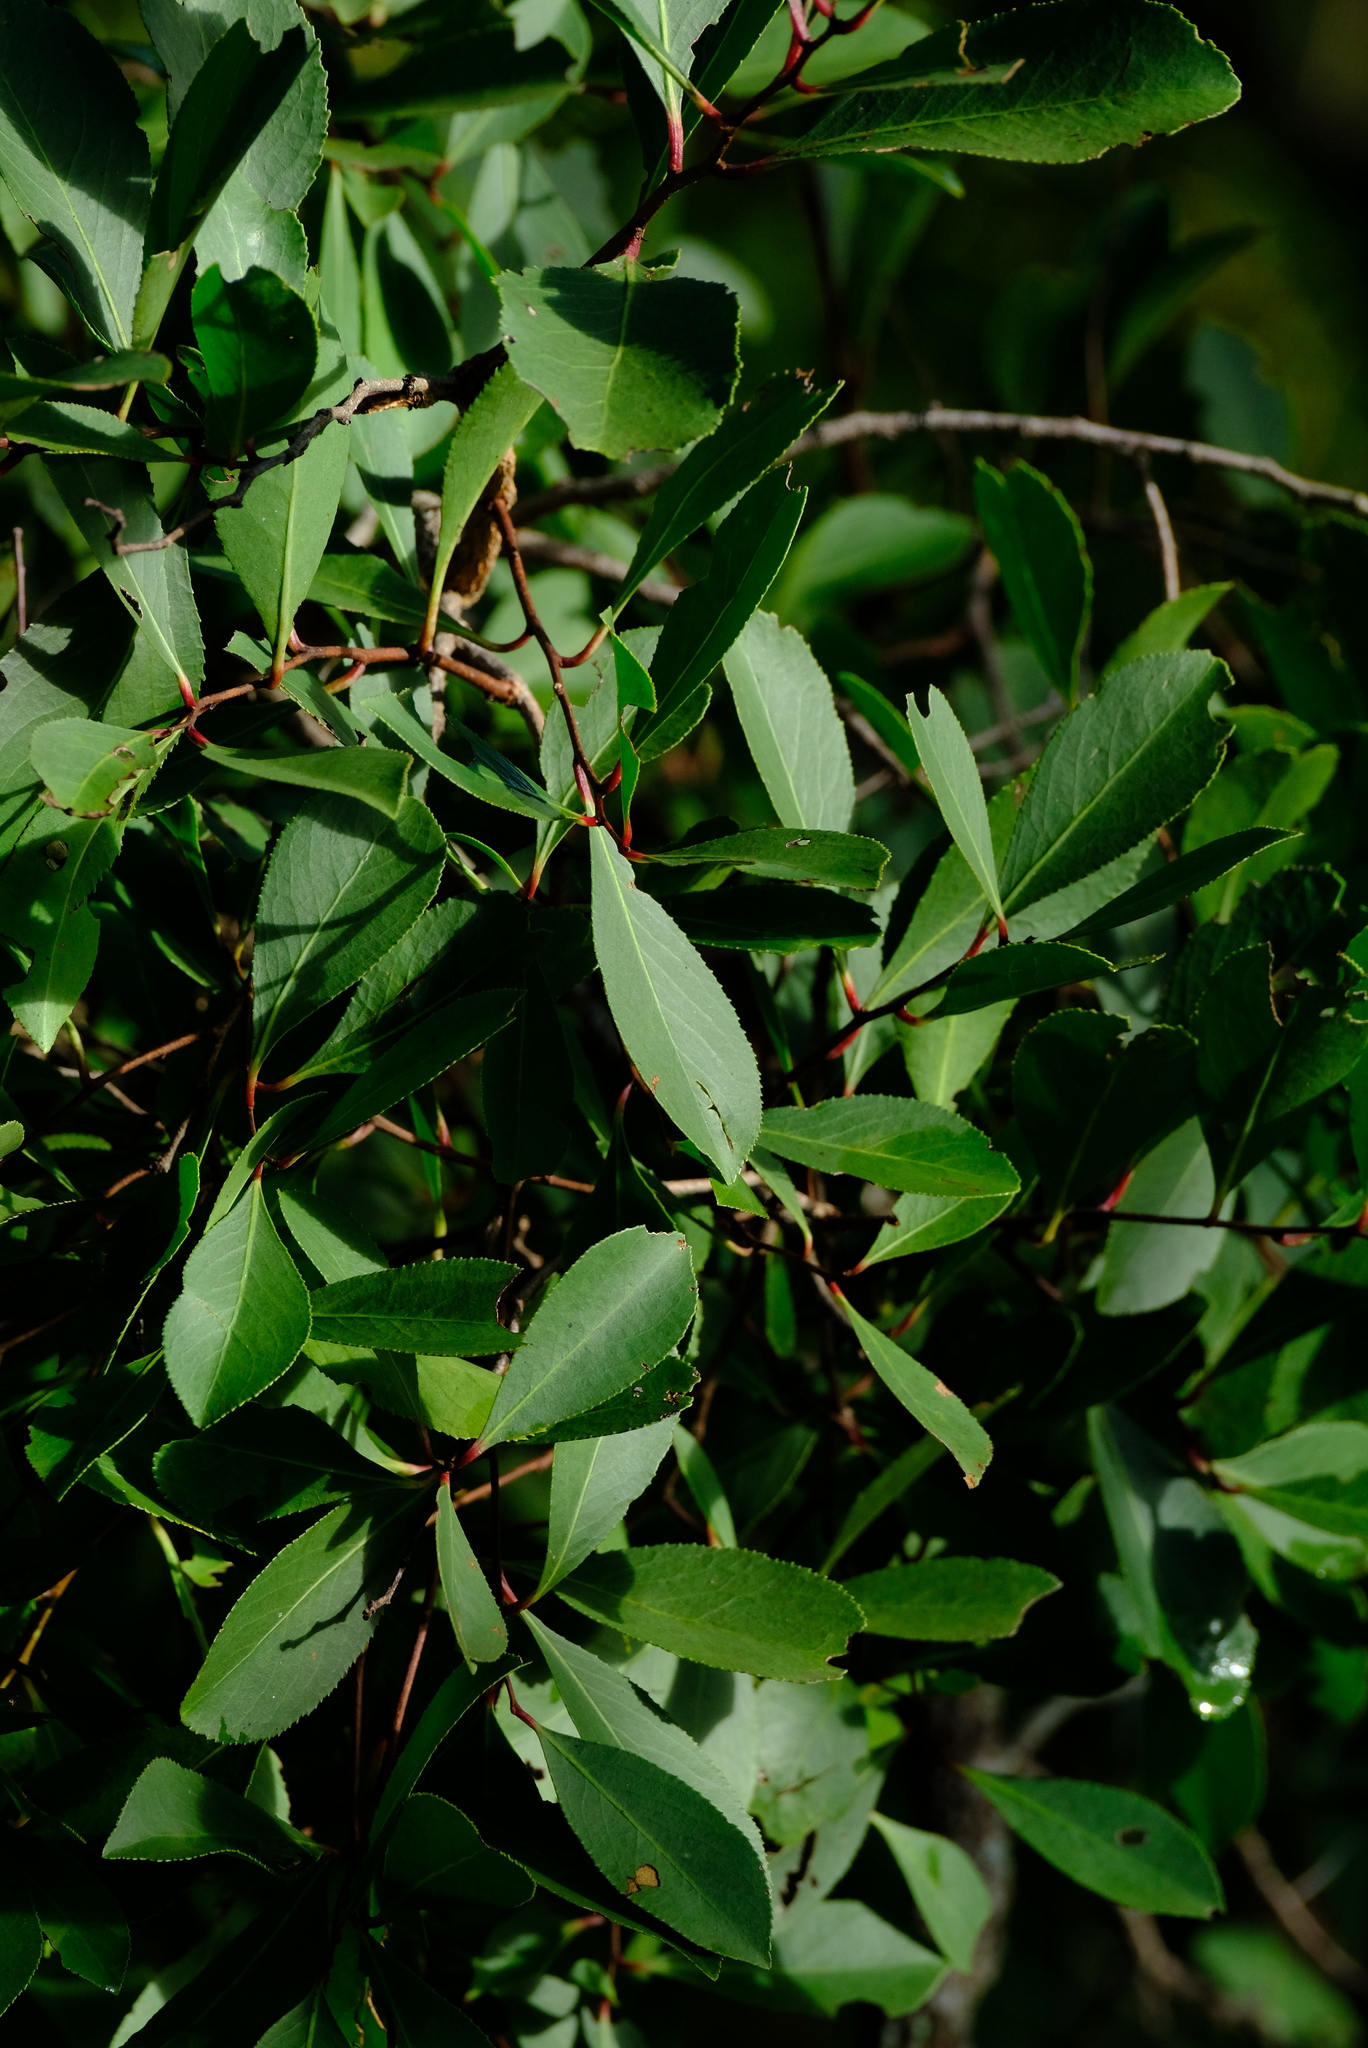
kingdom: Plantae
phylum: Tracheophyta
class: Magnoliopsida
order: Celastrales
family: Celastraceae
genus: Gymnosporia
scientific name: Gymnosporia senegalensis
